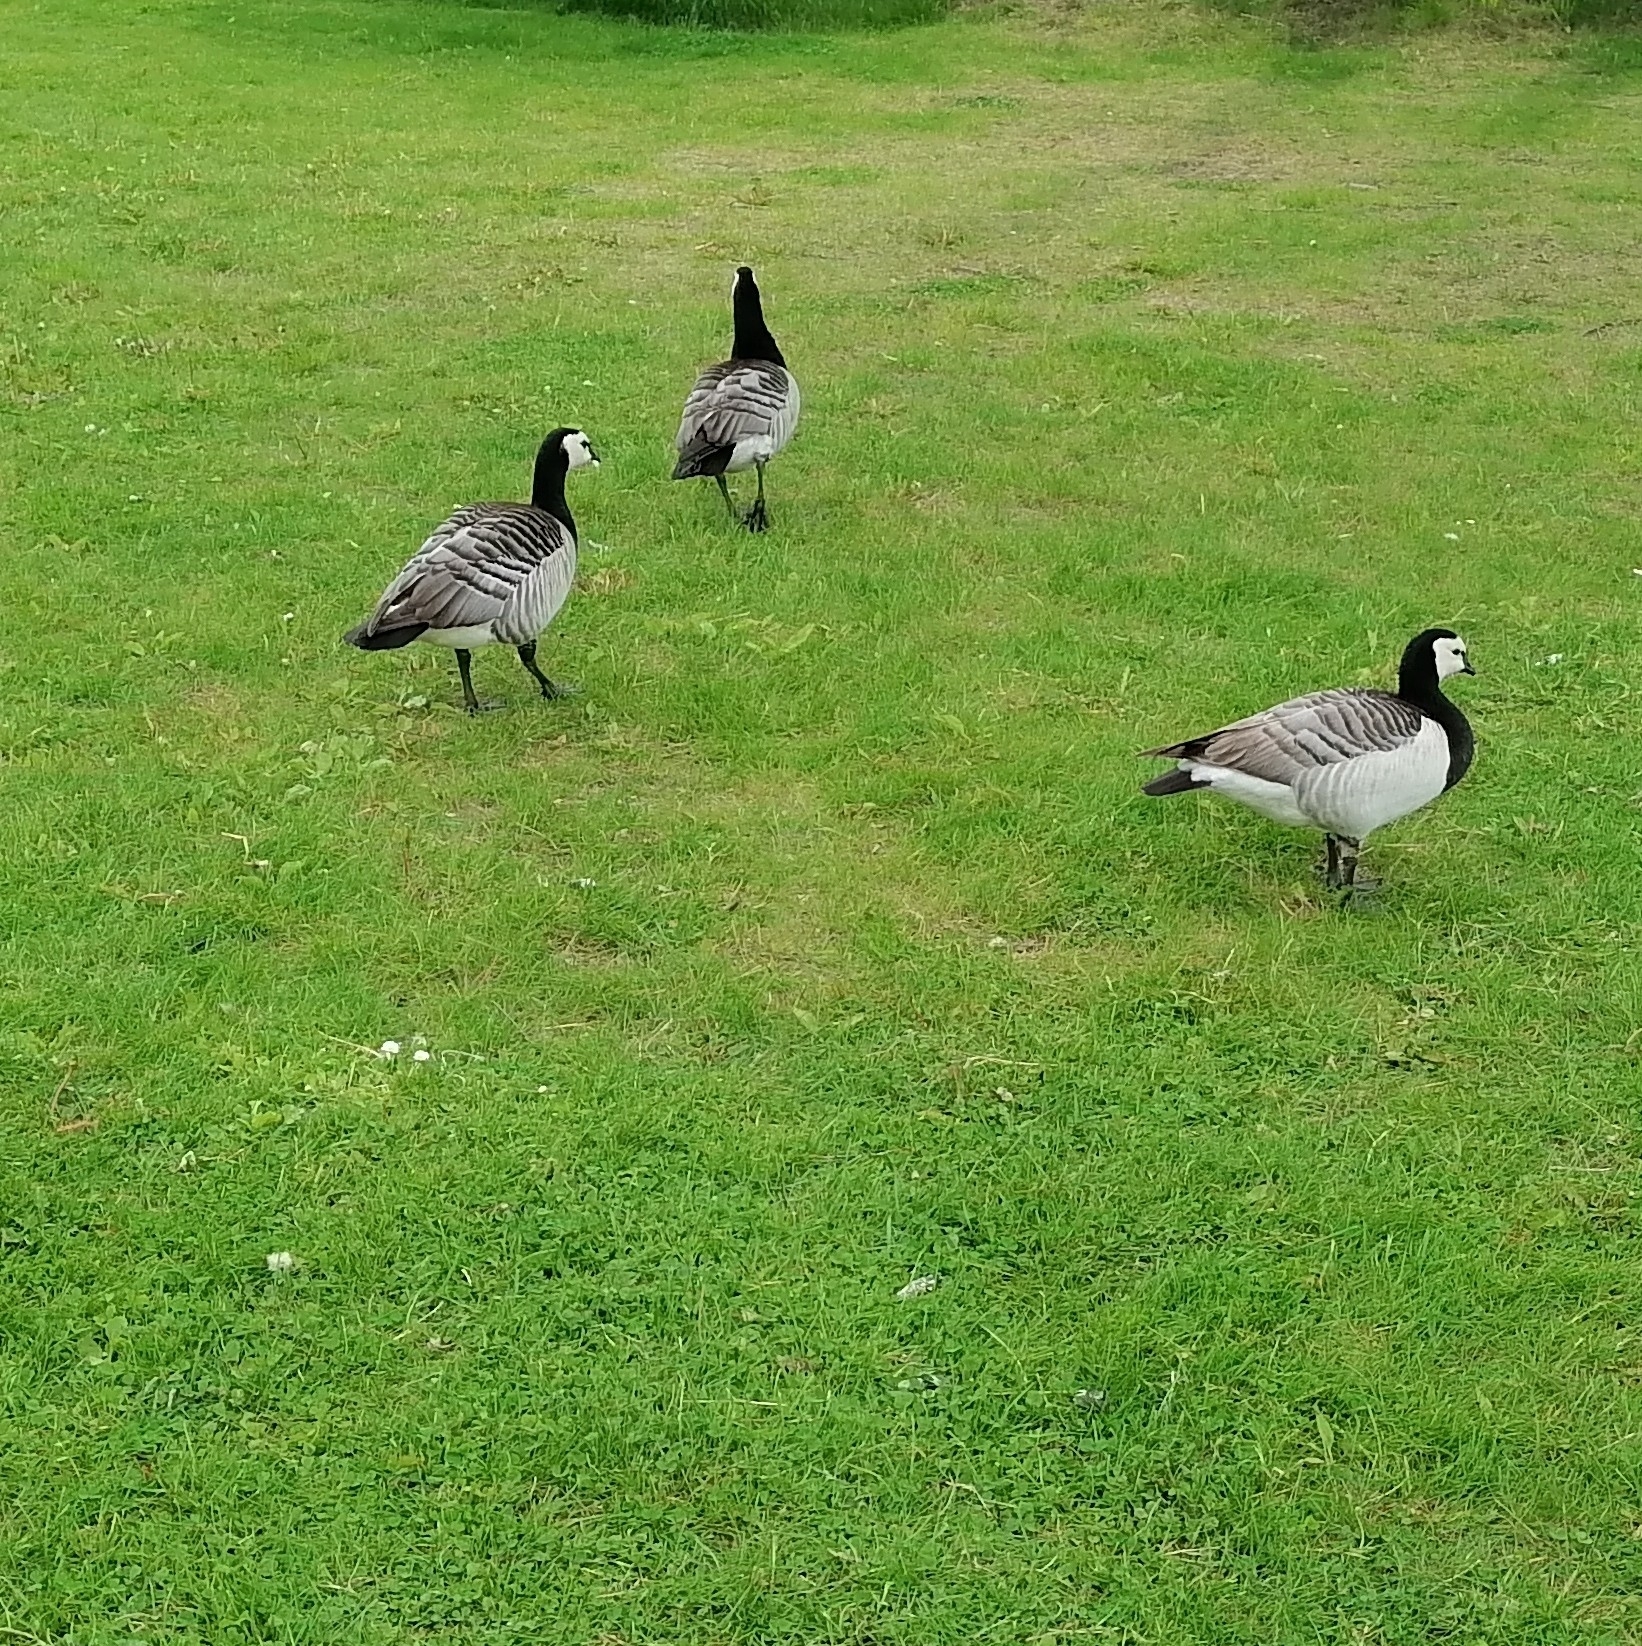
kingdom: Animalia
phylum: Chordata
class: Aves
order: Anseriformes
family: Anatidae
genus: Branta
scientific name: Branta leucopsis
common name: Barnacle goose
